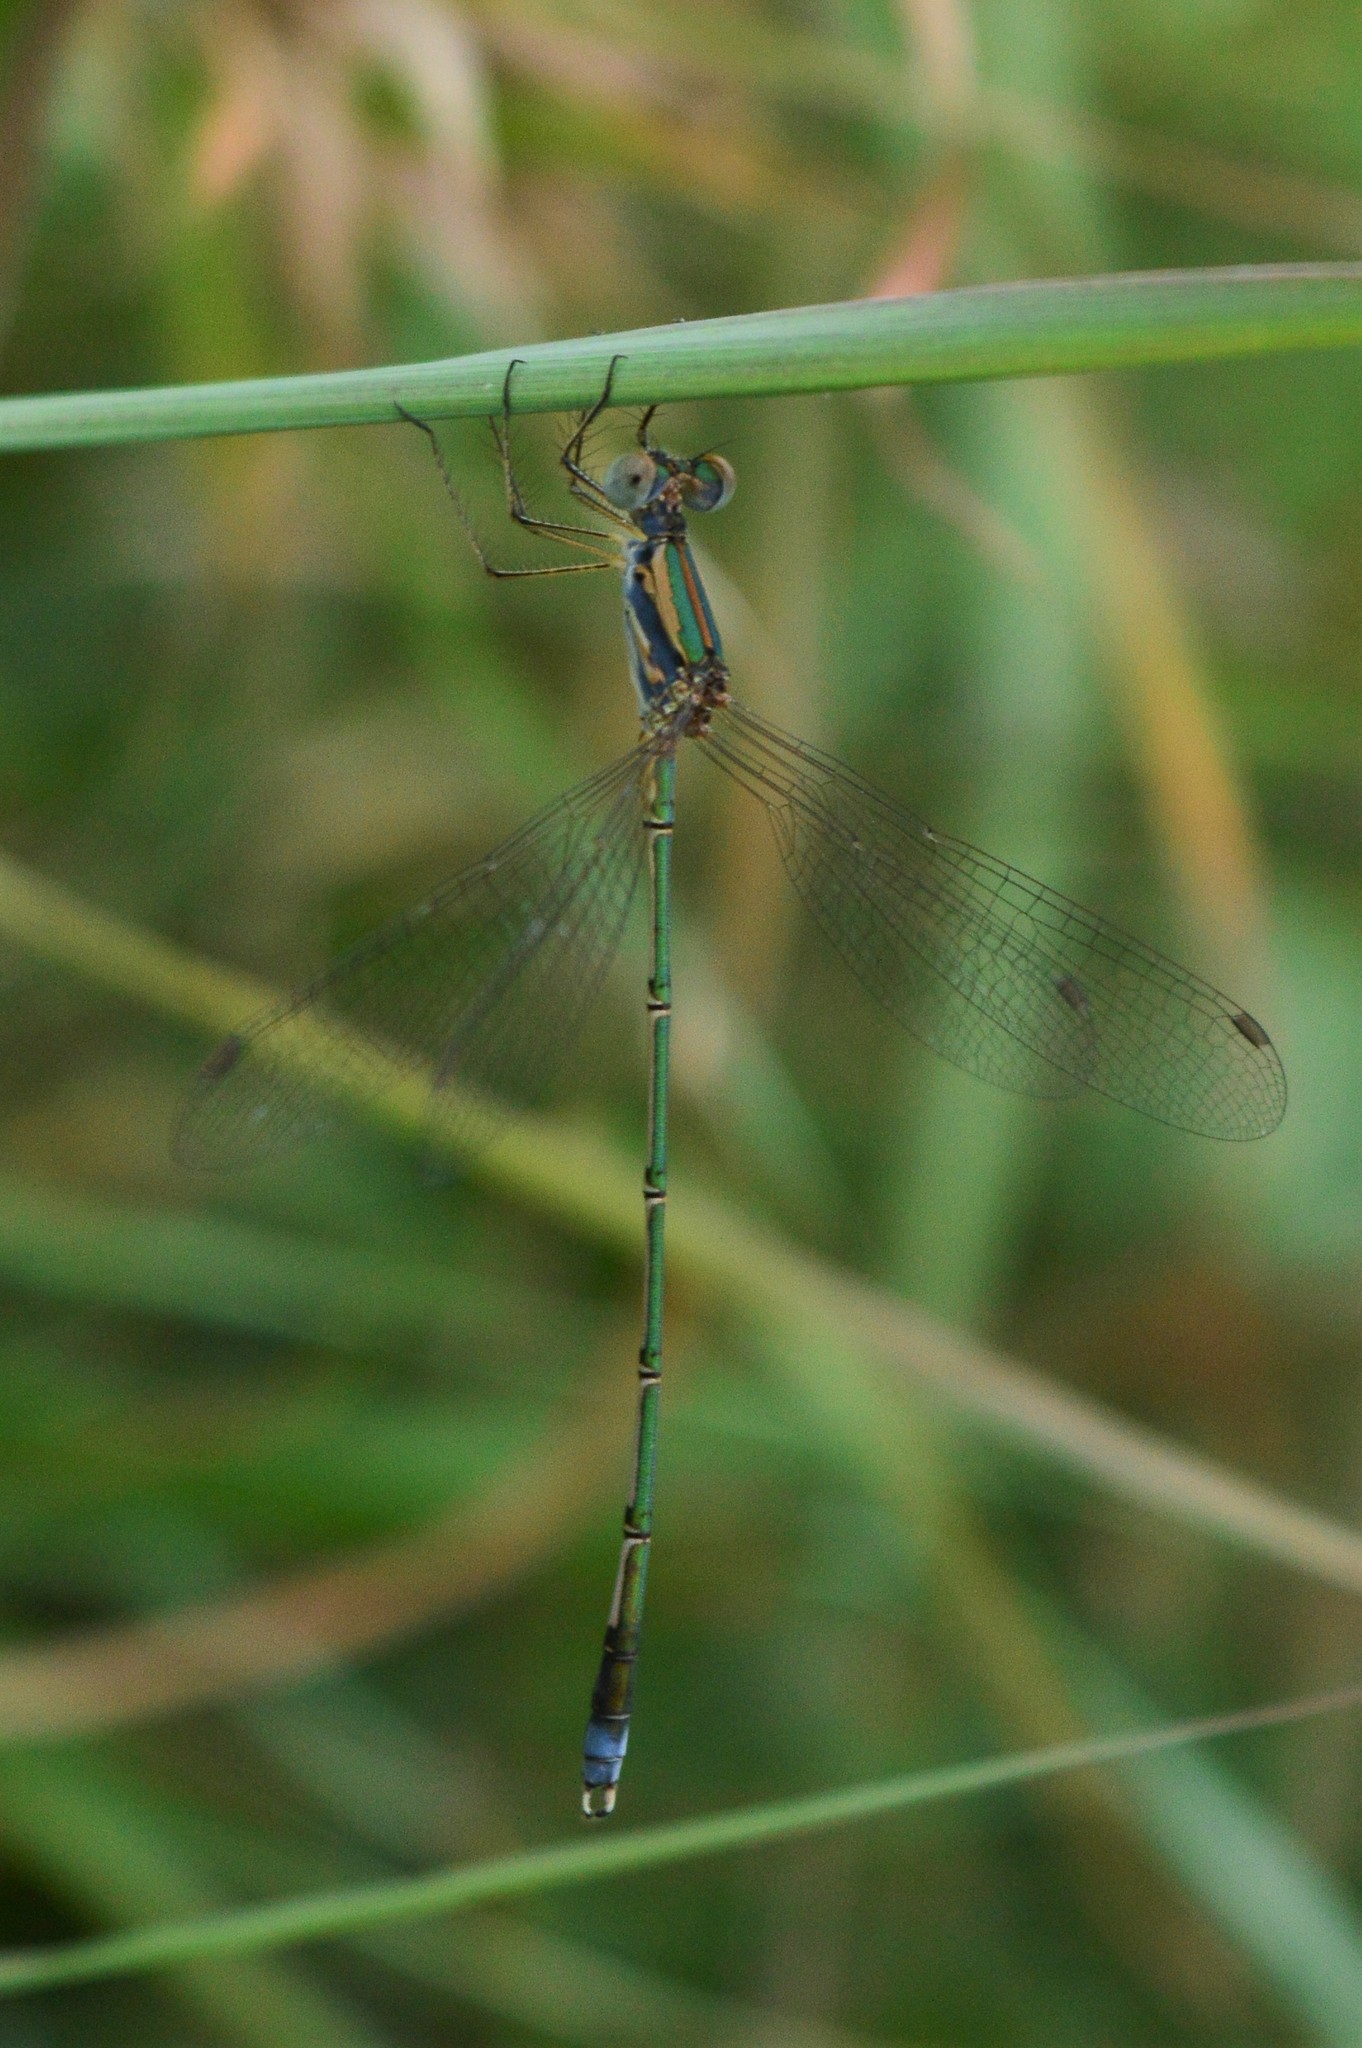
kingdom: Animalia
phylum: Arthropoda
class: Insecta
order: Odonata
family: Lestidae
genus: Lestes
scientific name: Lestes elatus
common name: Emerald spreadwing
